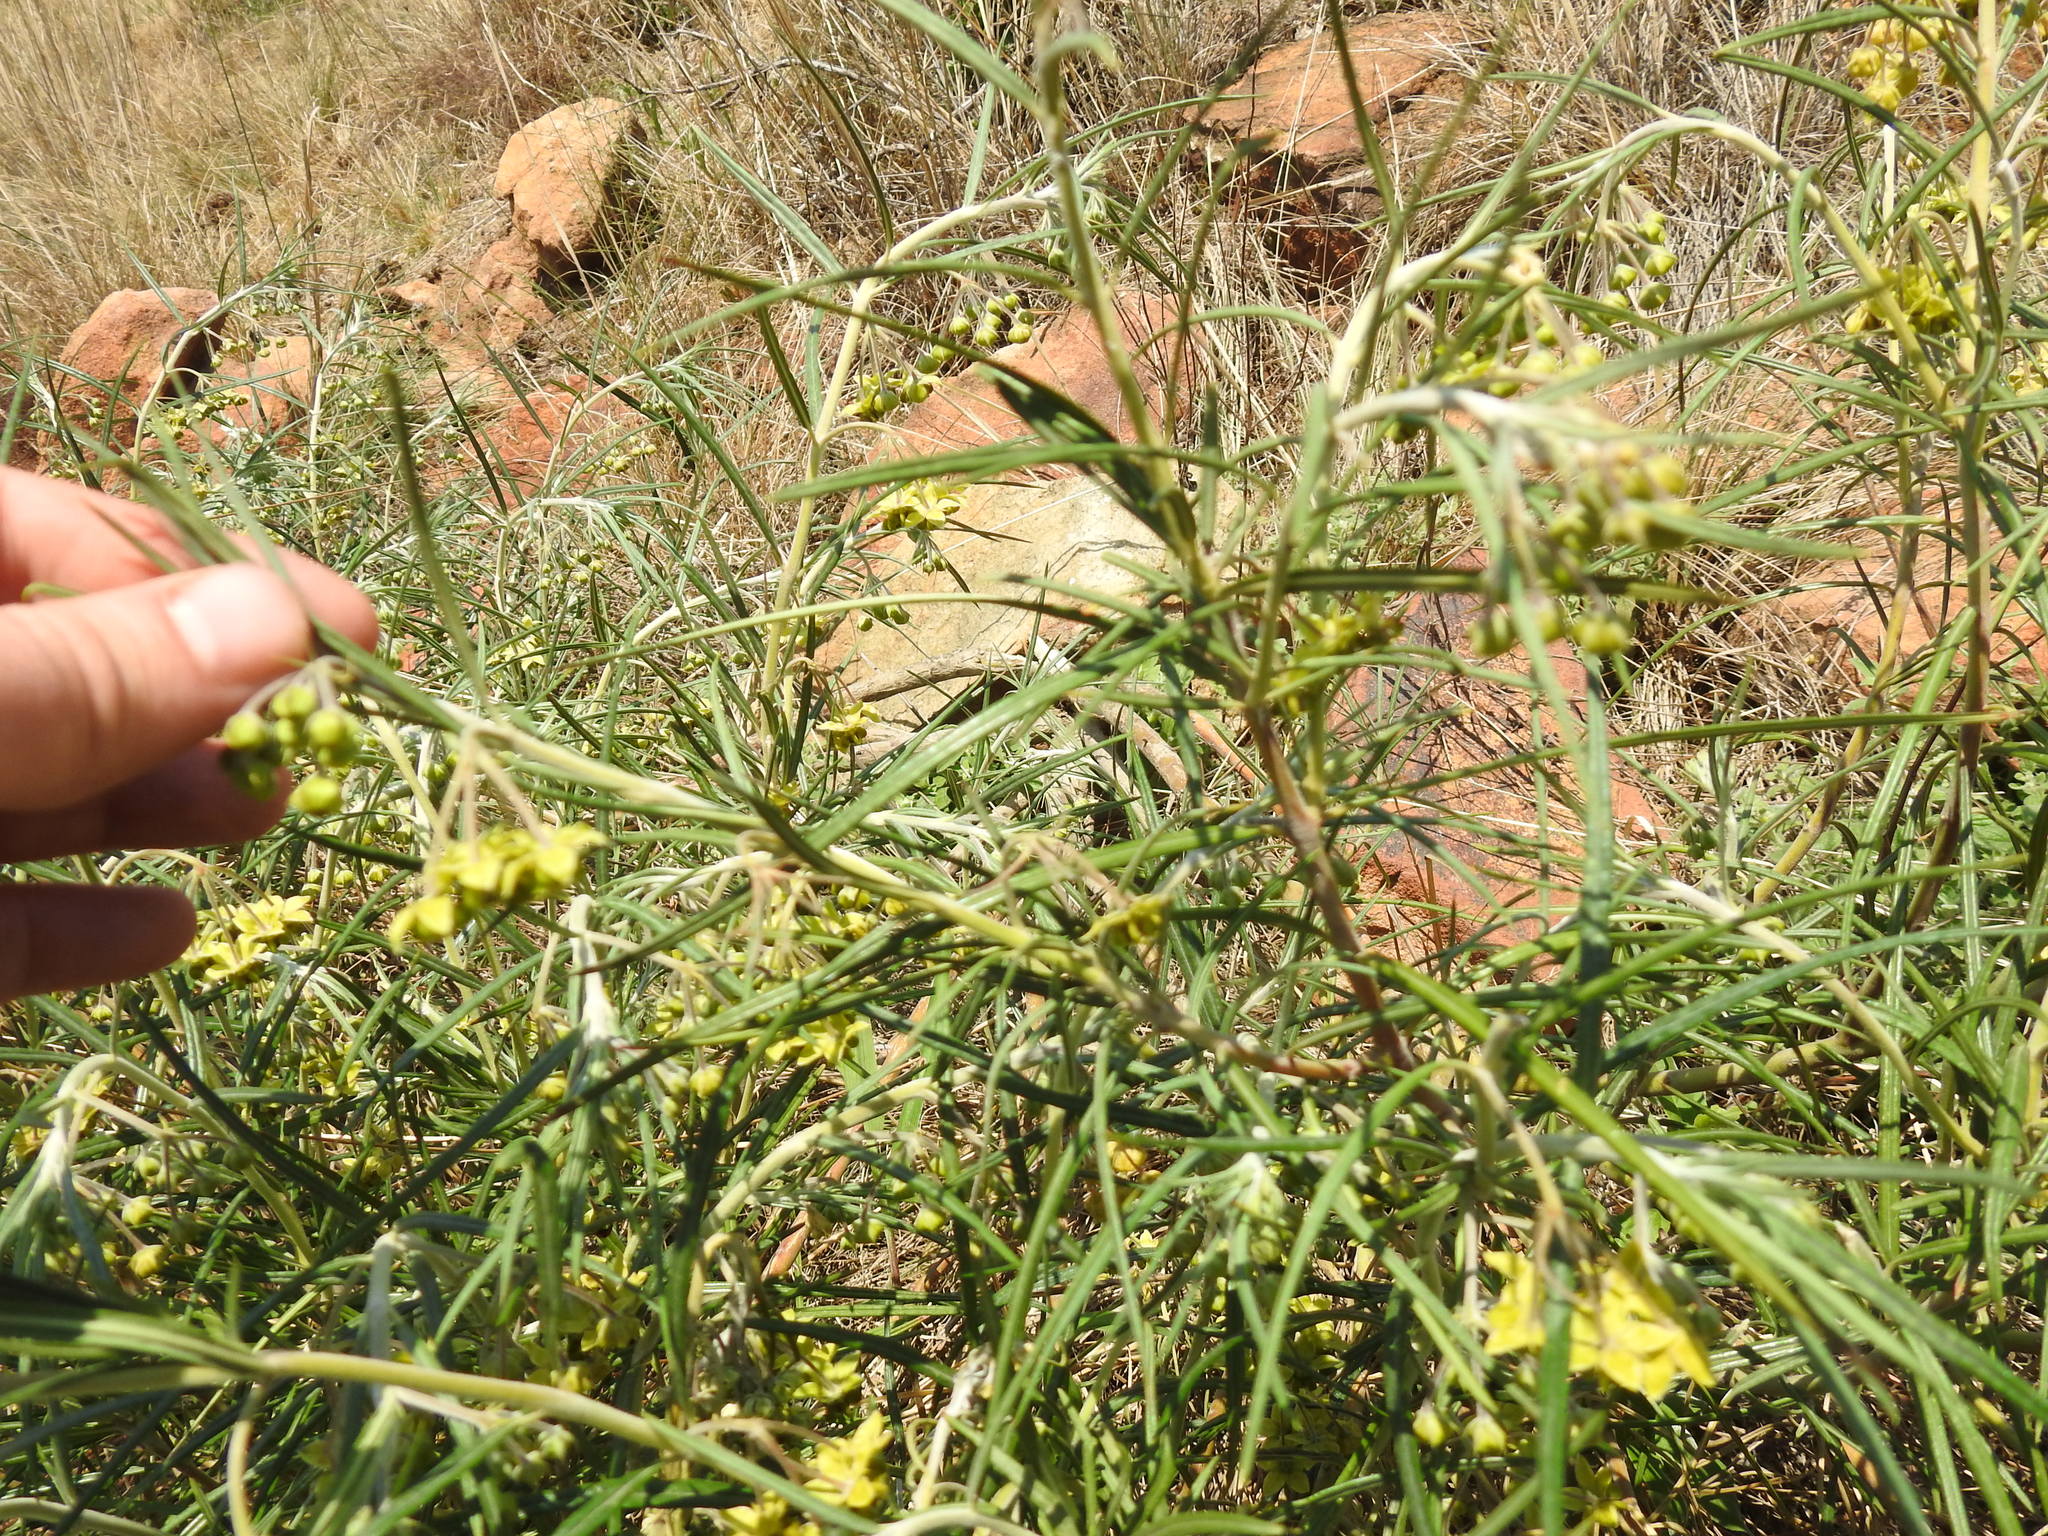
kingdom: Plantae
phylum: Tracheophyta
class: Magnoliopsida
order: Gentianales
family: Apocynaceae
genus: Gomphocarpus
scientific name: Gomphocarpus fruticosus
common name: Milkweed
